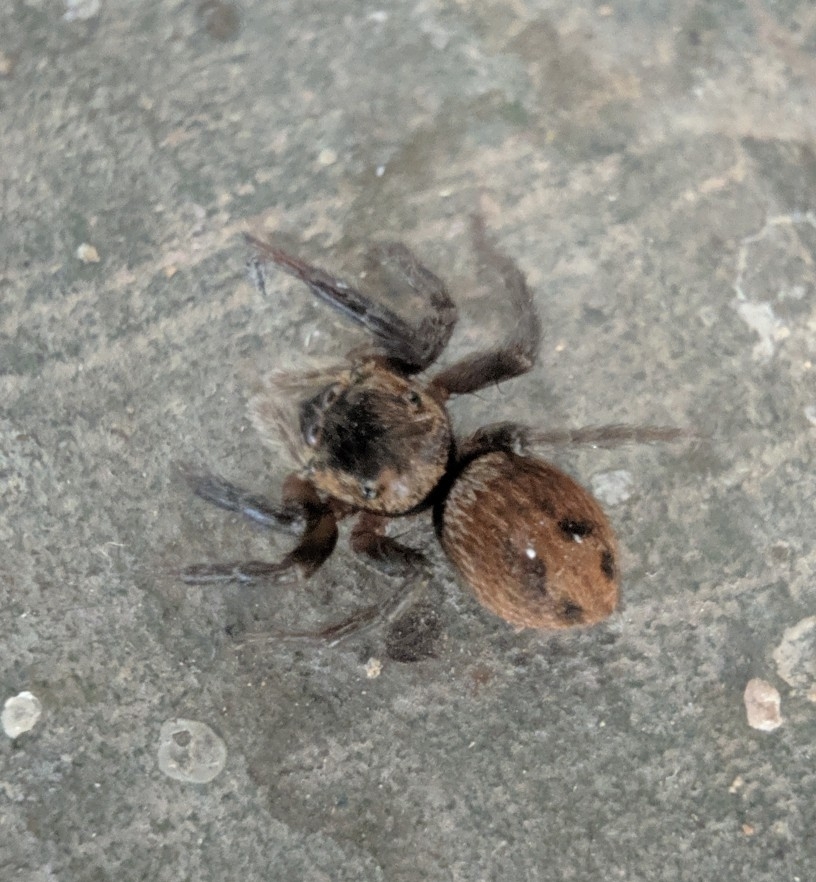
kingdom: Animalia
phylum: Arthropoda
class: Arachnida
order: Araneae
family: Salticidae
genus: Hasarius
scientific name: Hasarius adansoni
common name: Jumping spider
